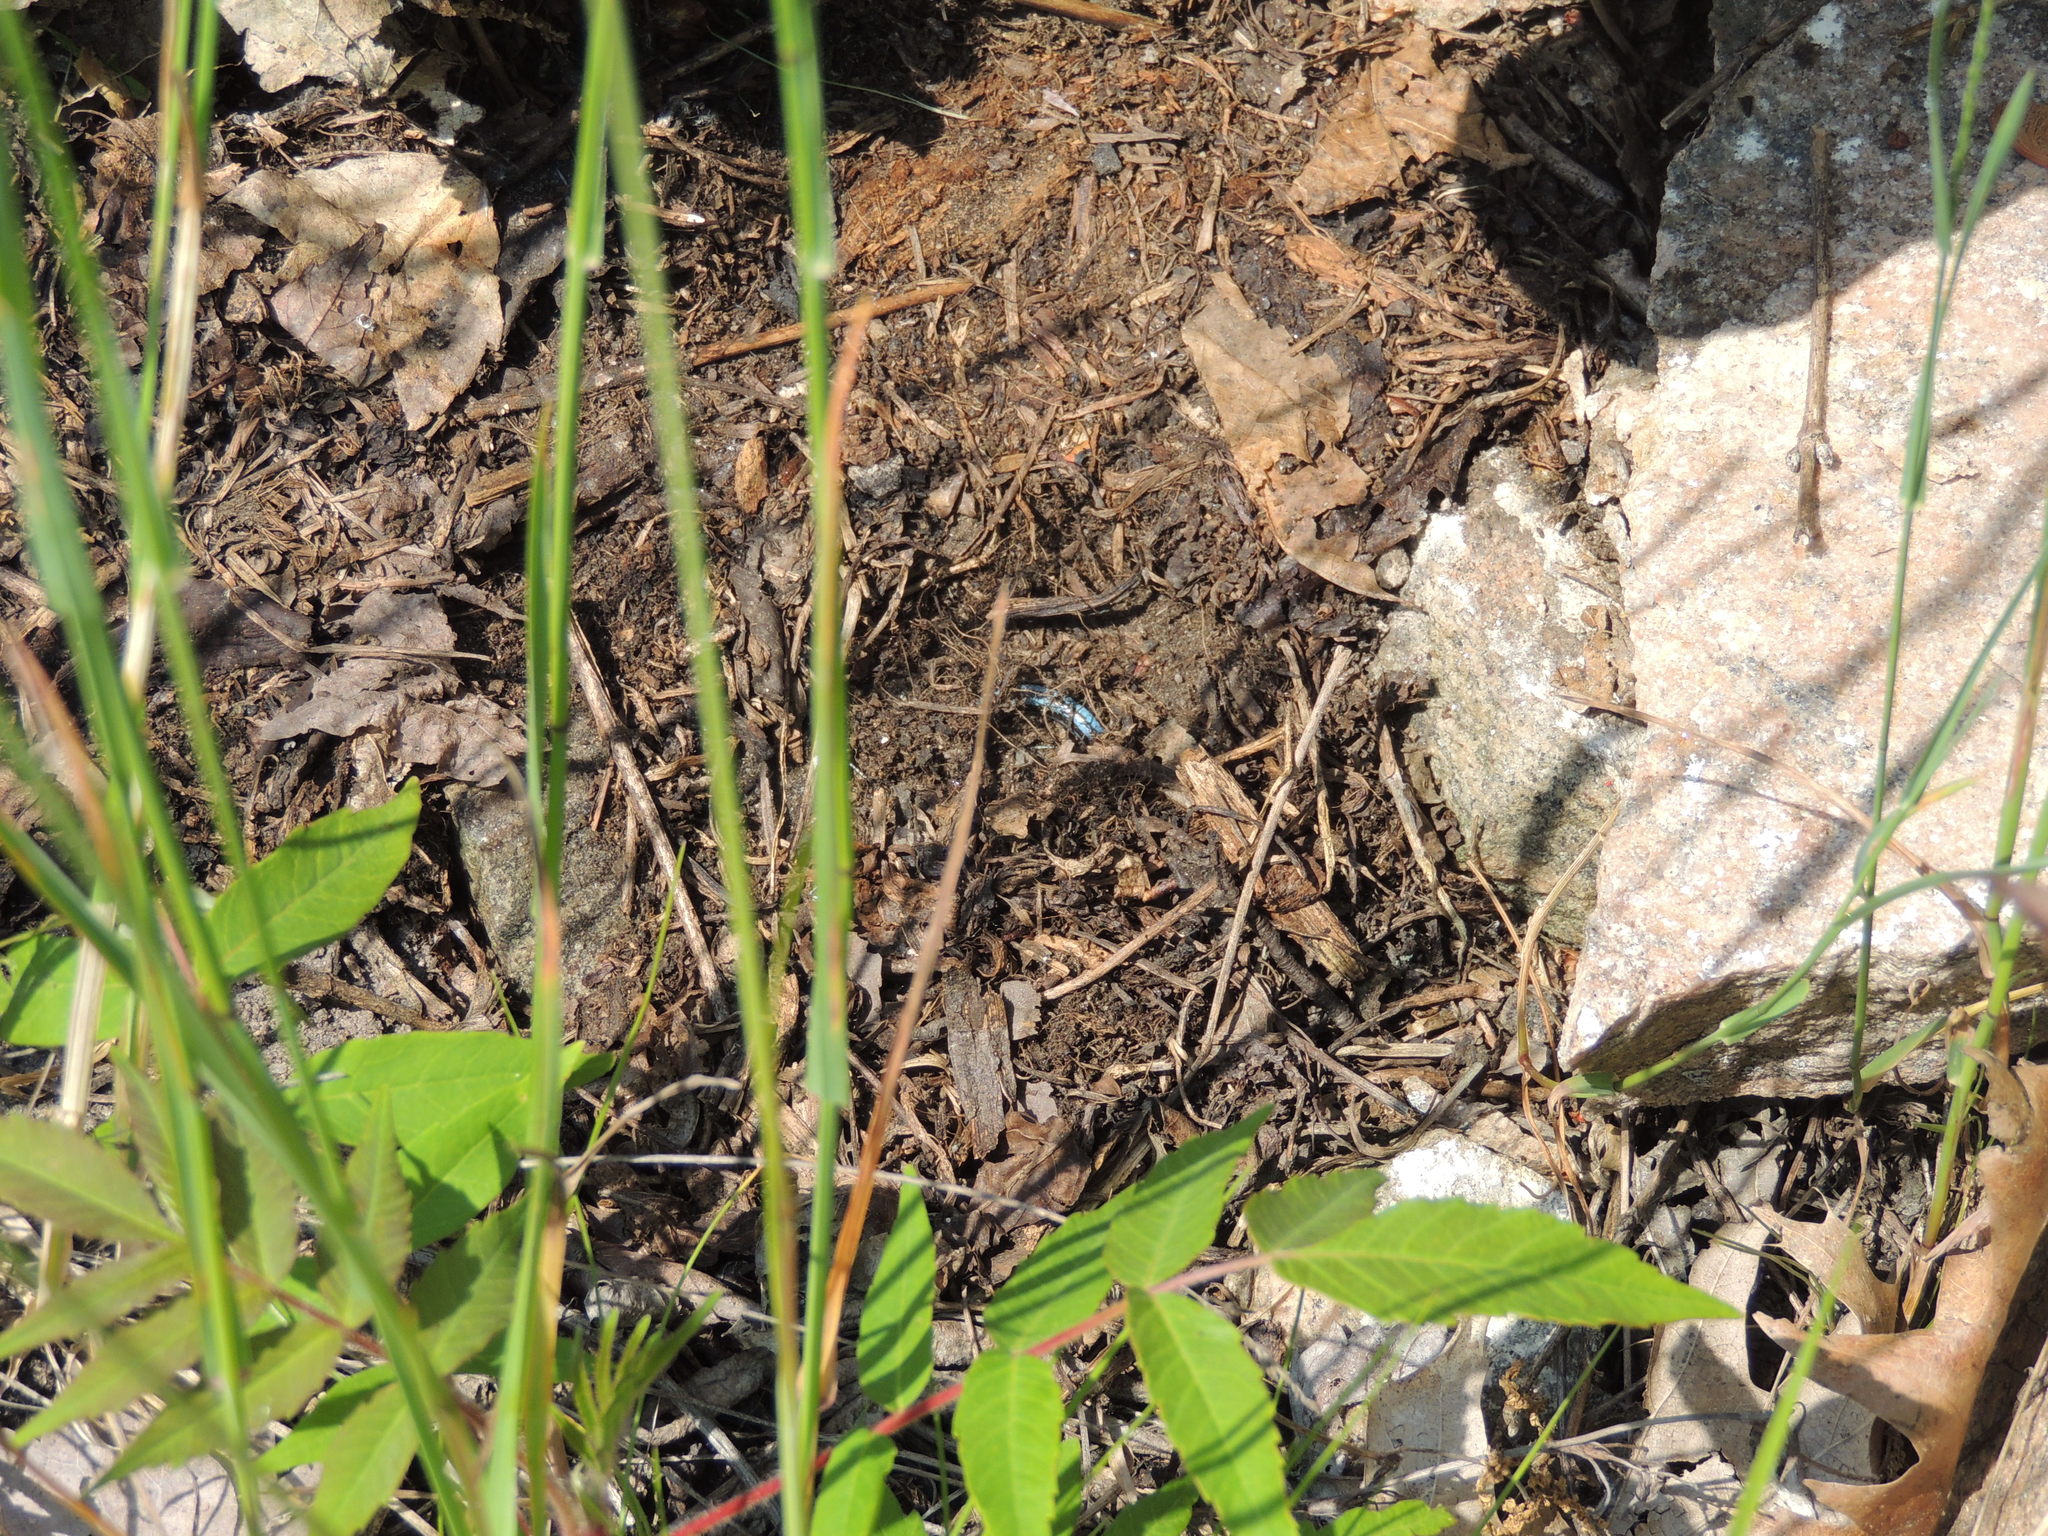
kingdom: Animalia
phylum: Chordata
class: Squamata
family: Scincidae
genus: Plestiodon
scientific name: Plestiodon fasciatus
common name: Five-lined skink
